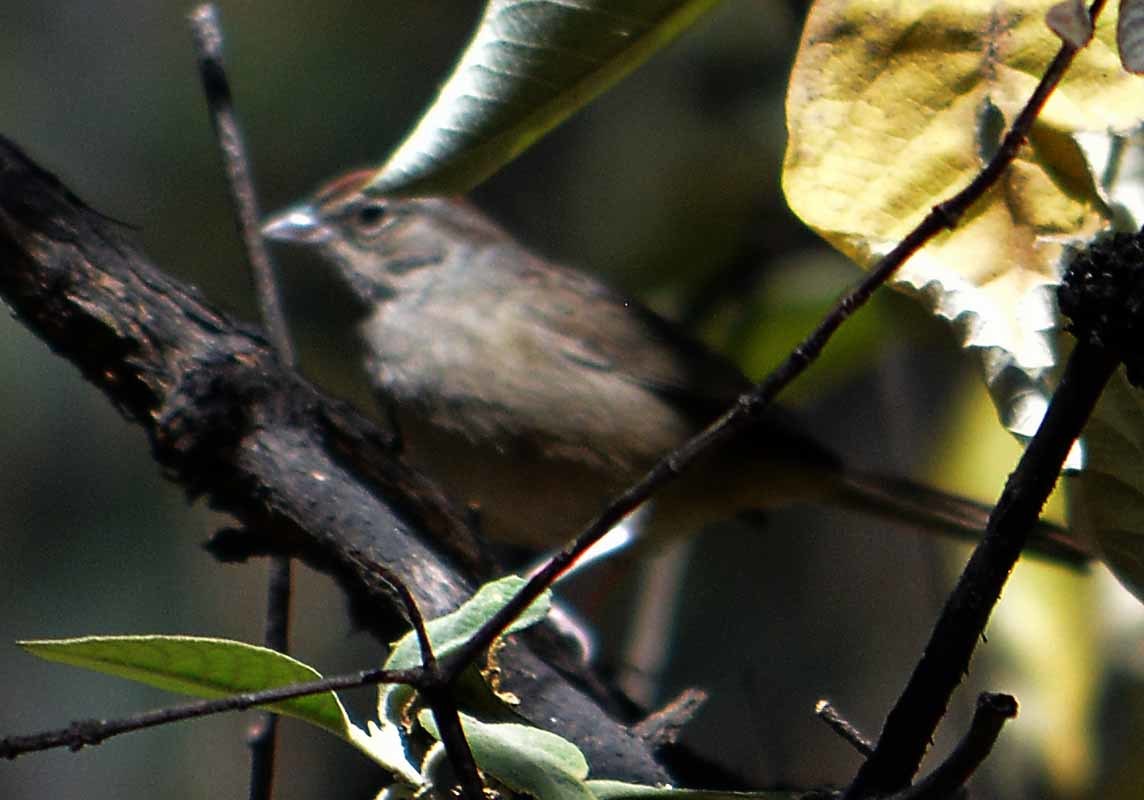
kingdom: Animalia
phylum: Chordata
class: Aves
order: Passeriformes
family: Passerellidae
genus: Aimophila
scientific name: Aimophila ruficeps
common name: Rufous-crowned sparrow
